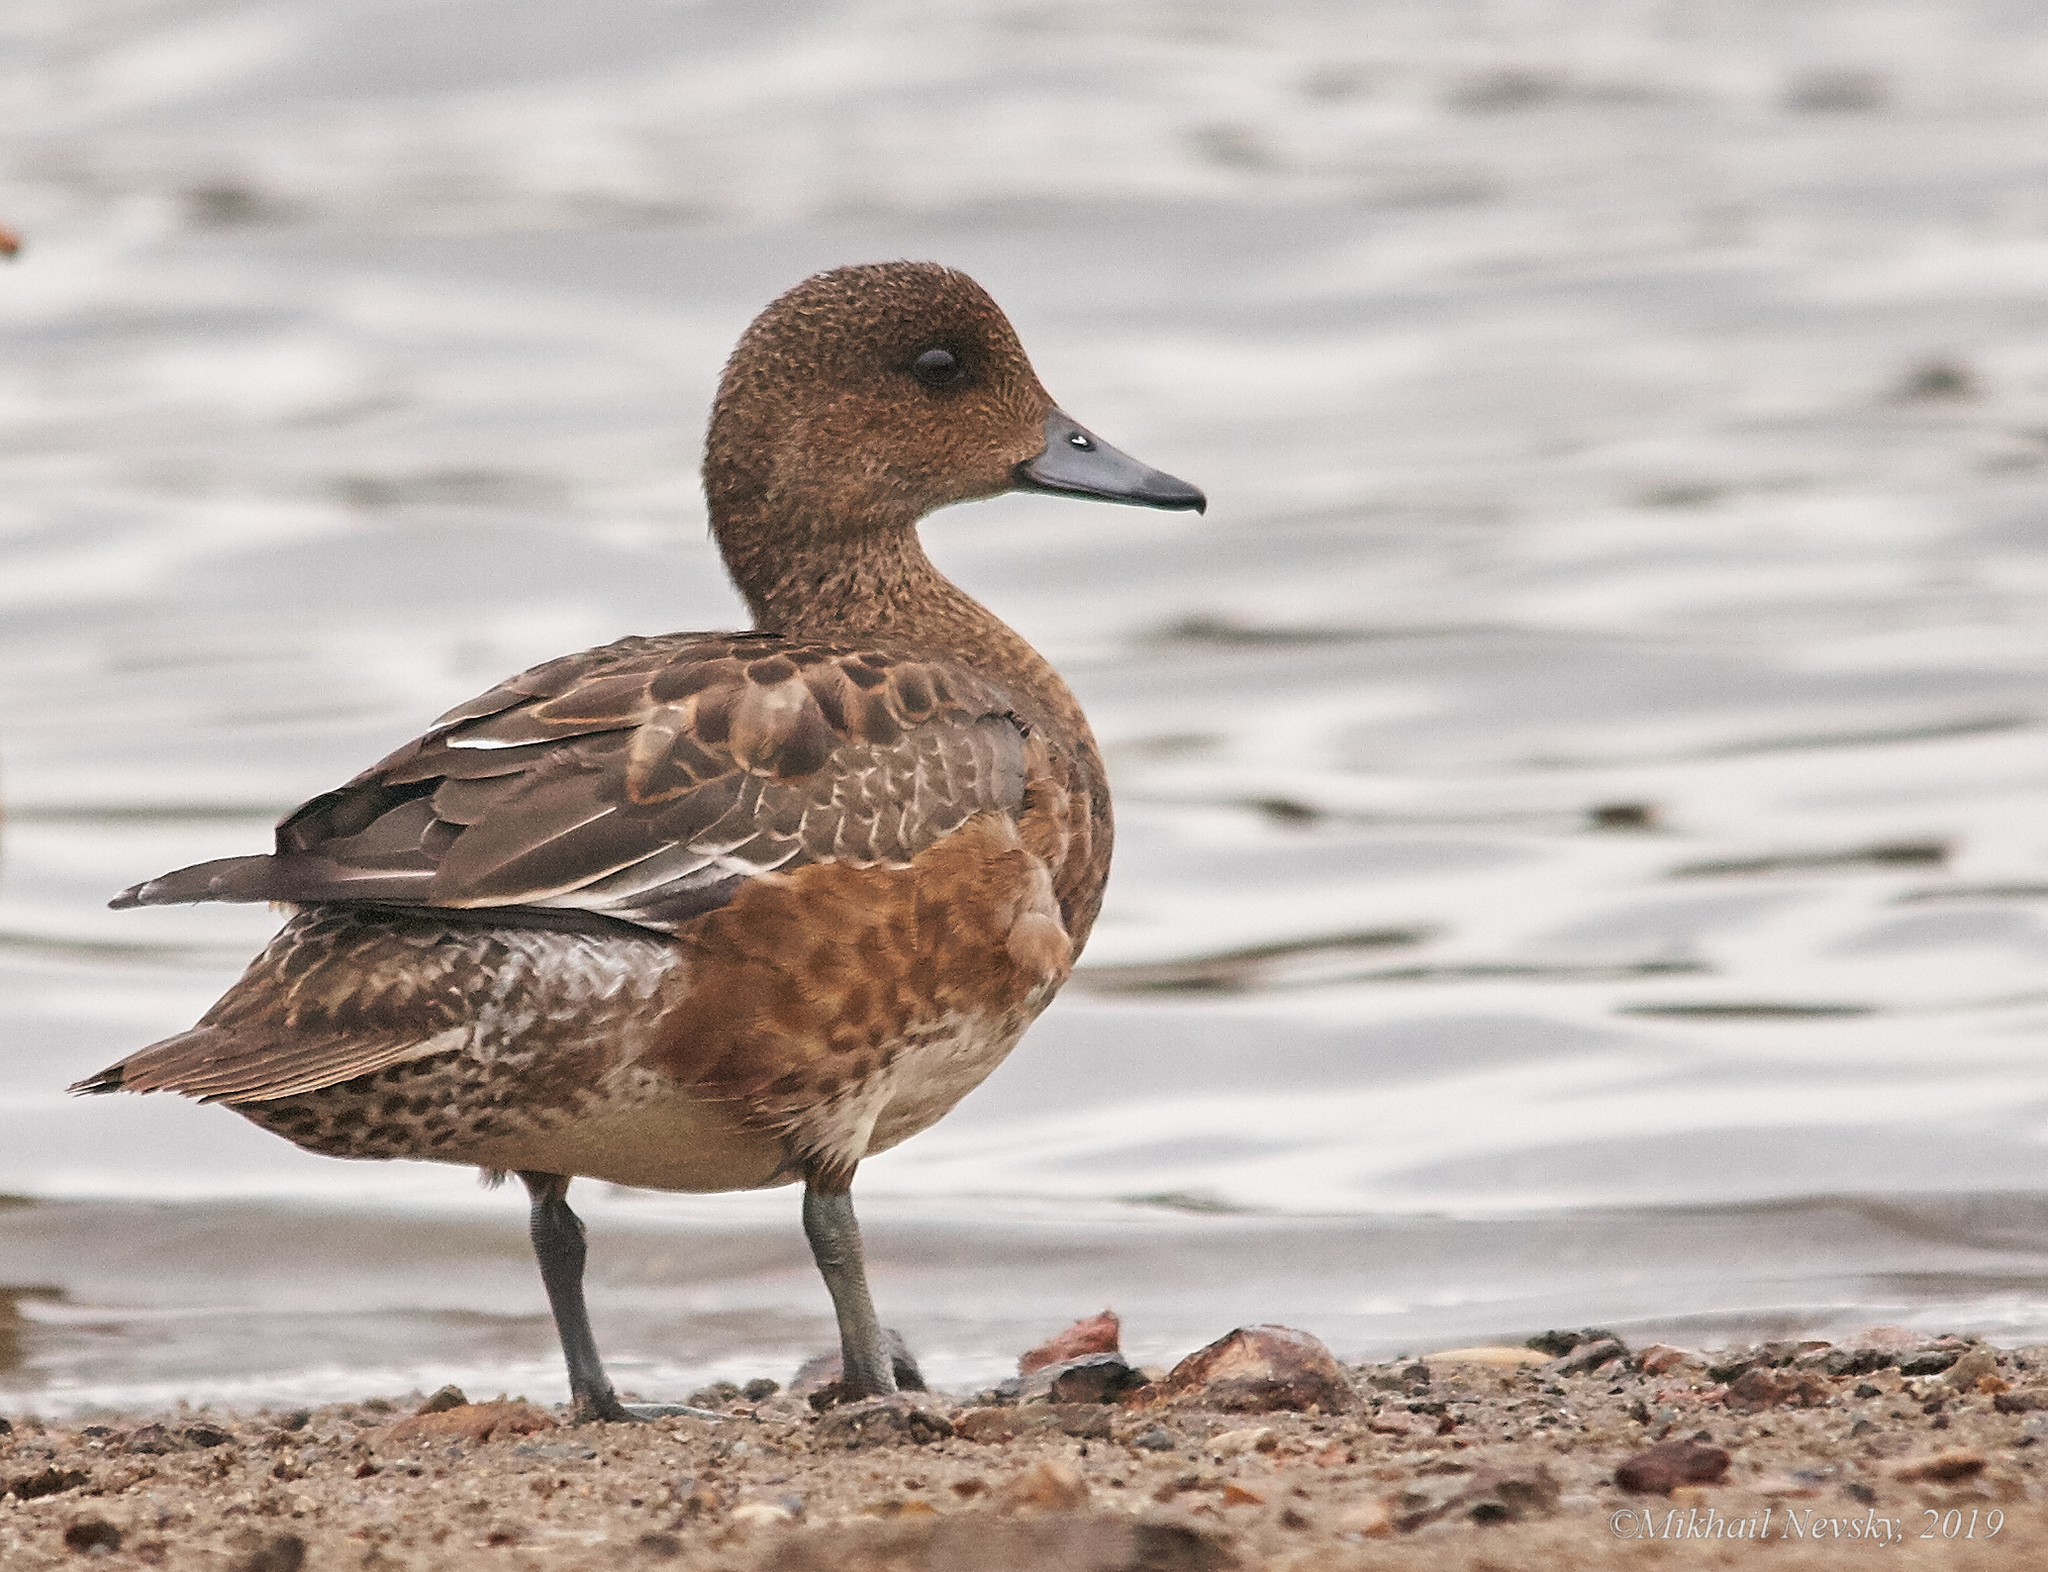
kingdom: Animalia
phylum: Chordata
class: Aves
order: Anseriformes
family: Anatidae
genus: Mareca
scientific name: Mareca penelope
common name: Eurasian wigeon
